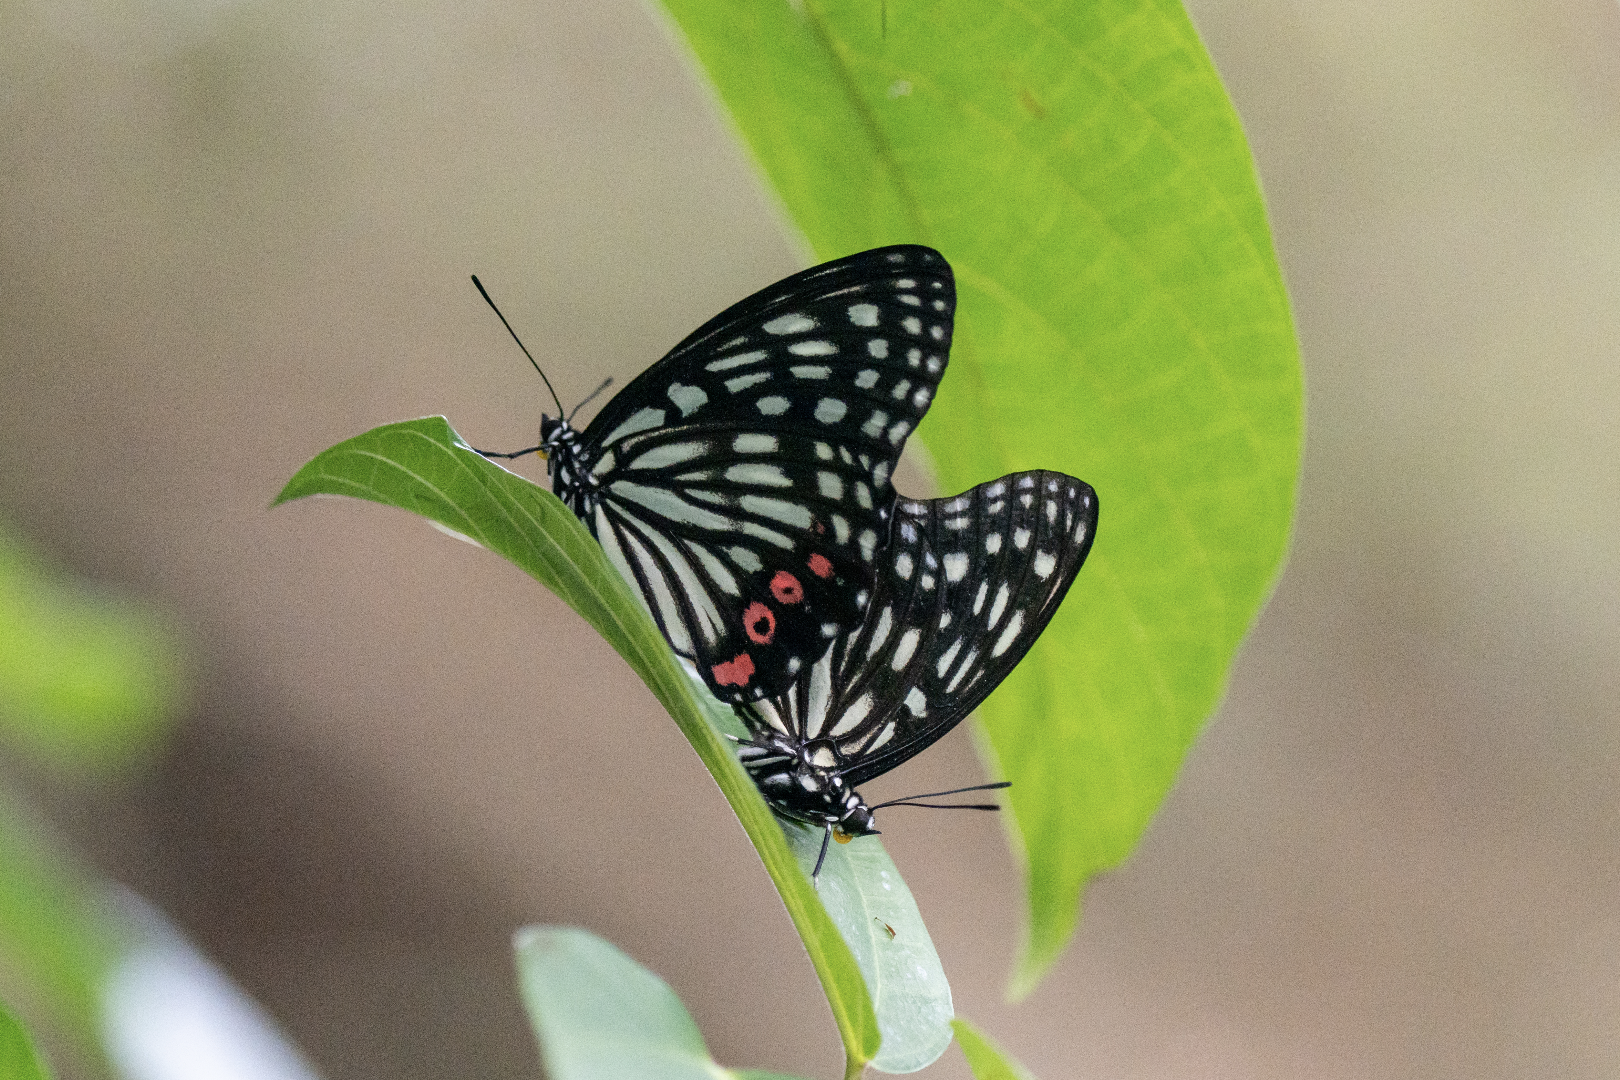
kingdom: Animalia
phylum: Arthropoda
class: Insecta
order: Lepidoptera
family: Nymphalidae
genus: Hestina
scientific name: Hestina assimilis
